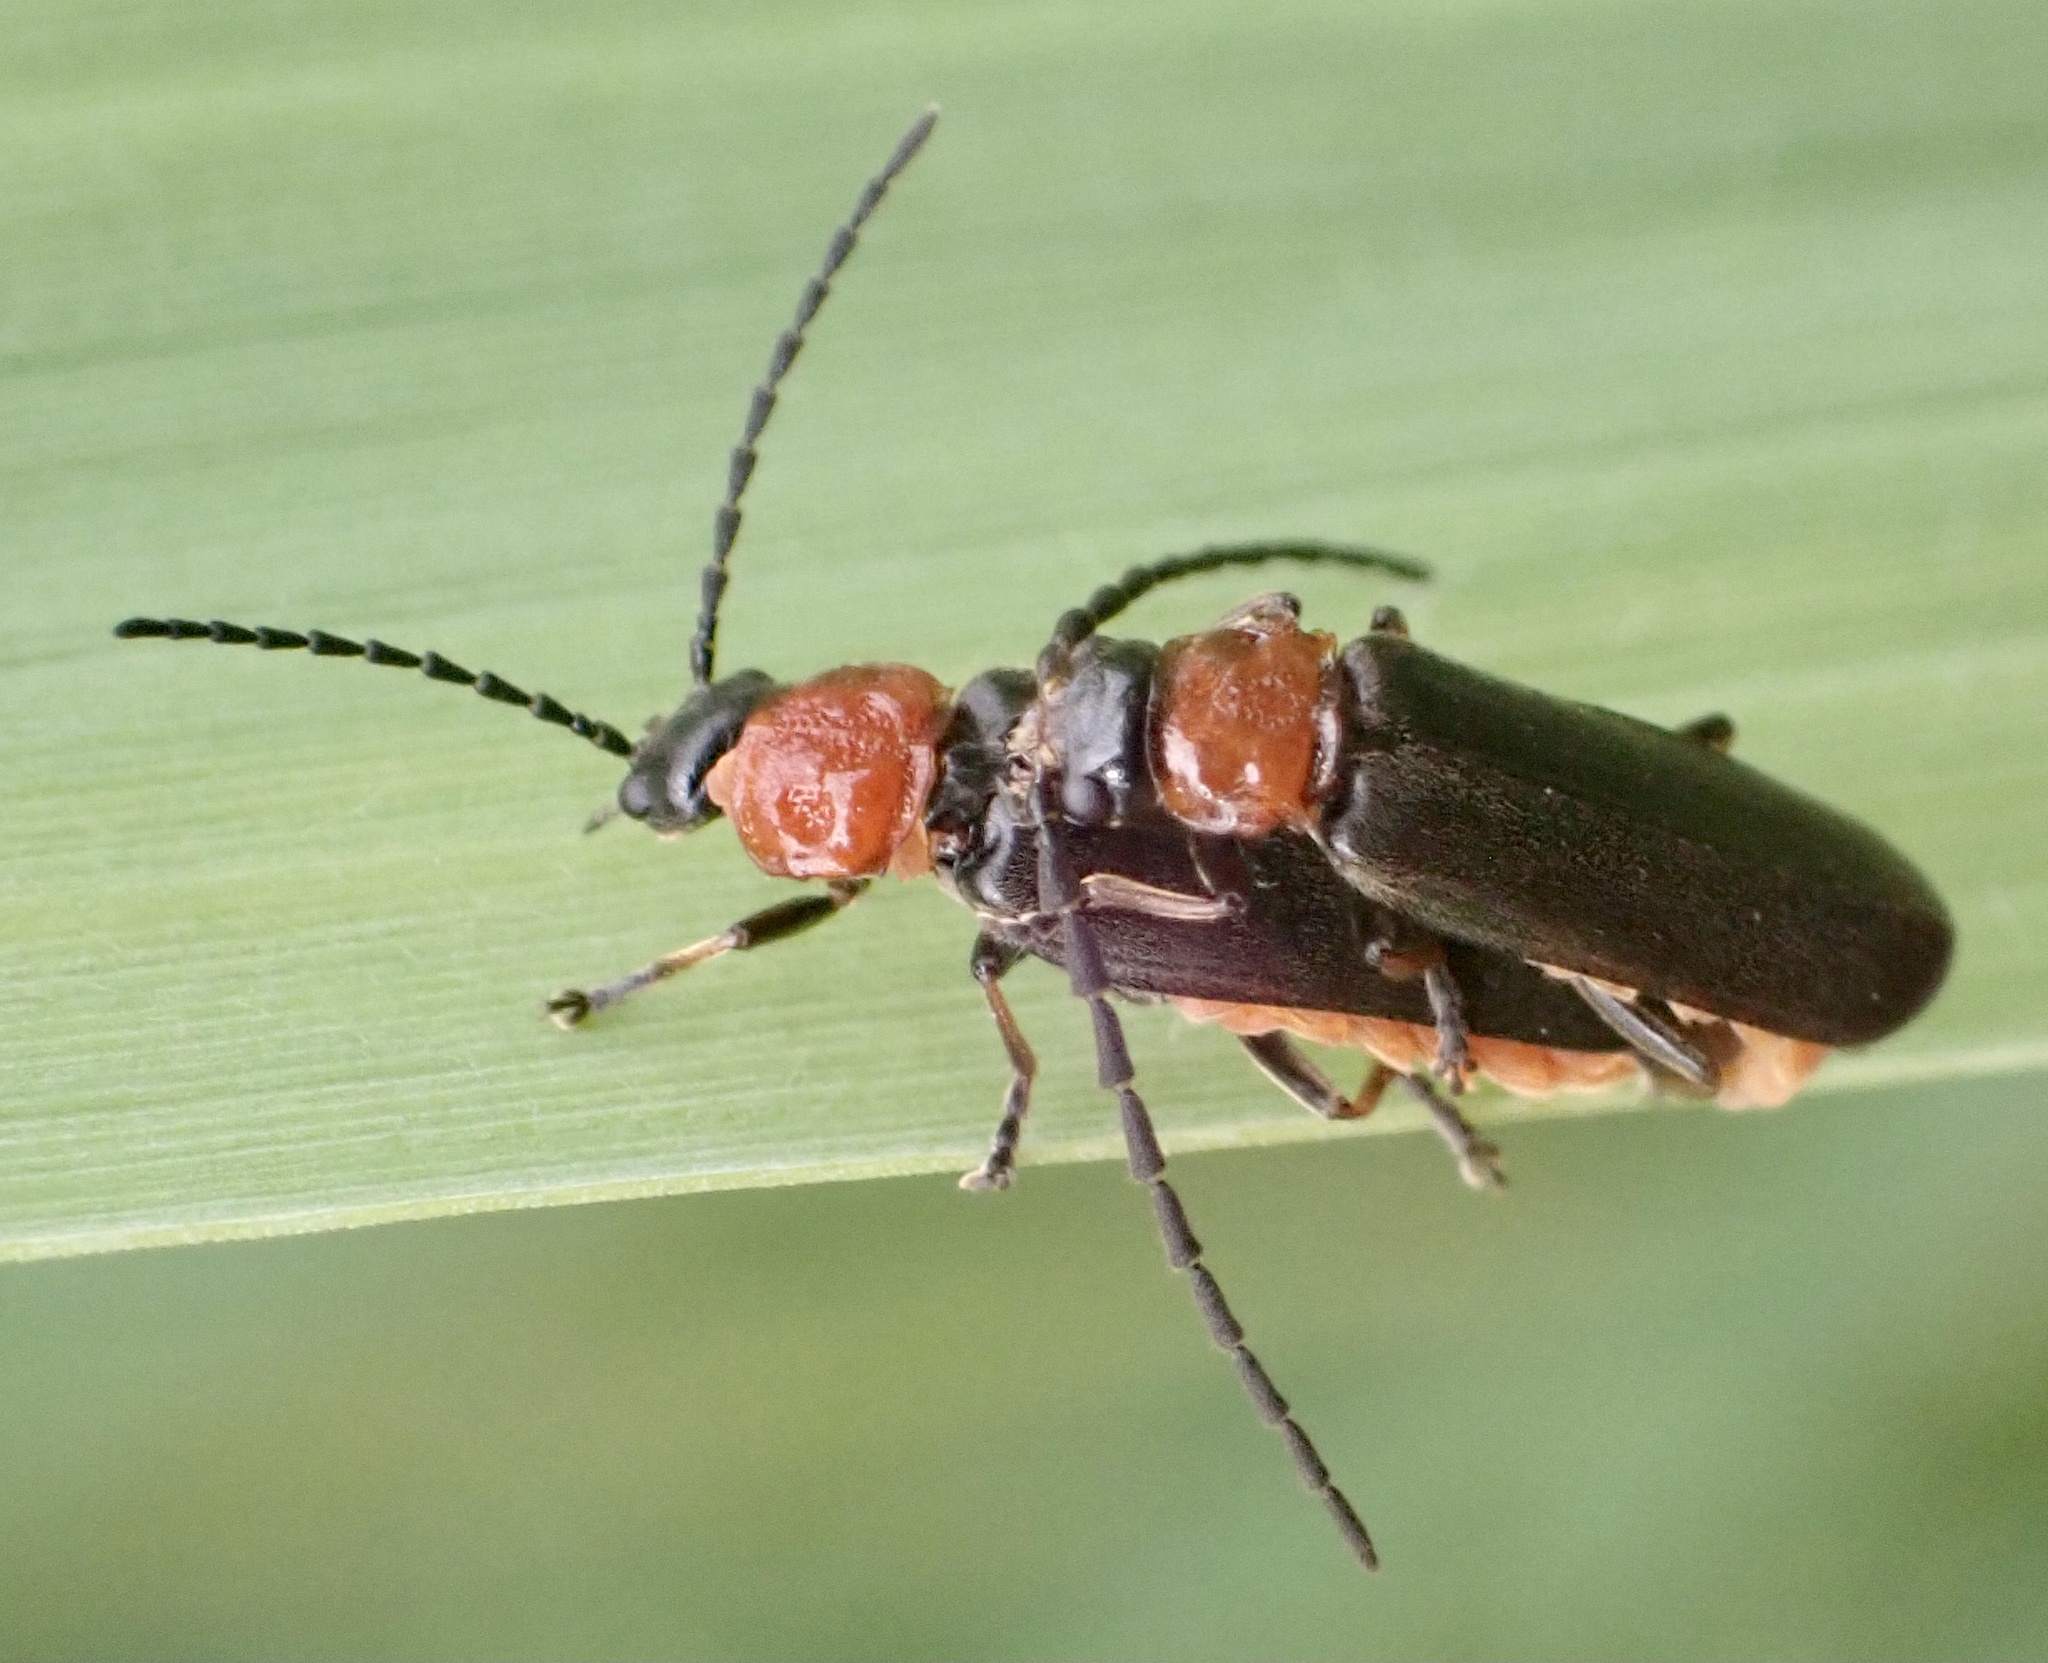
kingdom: Animalia
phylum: Arthropoda
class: Insecta
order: Coleoptera
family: Cantharidae
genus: Crudosilis
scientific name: Crudosilis ruficollis
